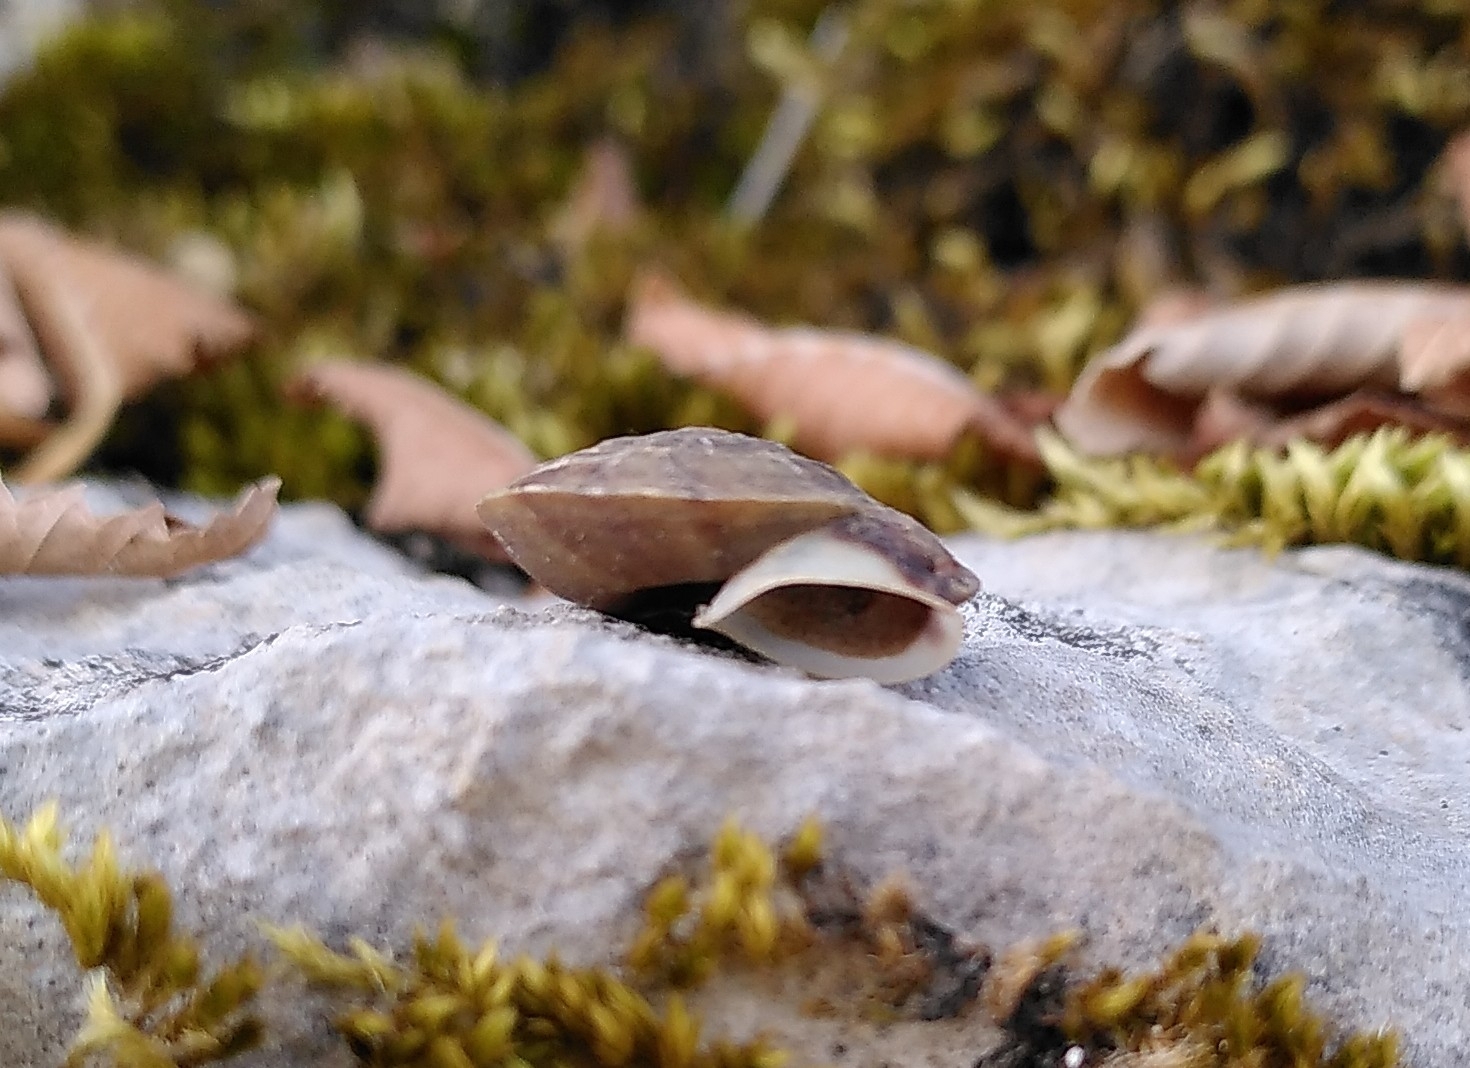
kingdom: Animalia
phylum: Mollusca
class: Gastropoda
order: Stylommatophora
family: Helicidae
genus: Helicigona
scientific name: Helicigona lapicida
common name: Lapidary snail
